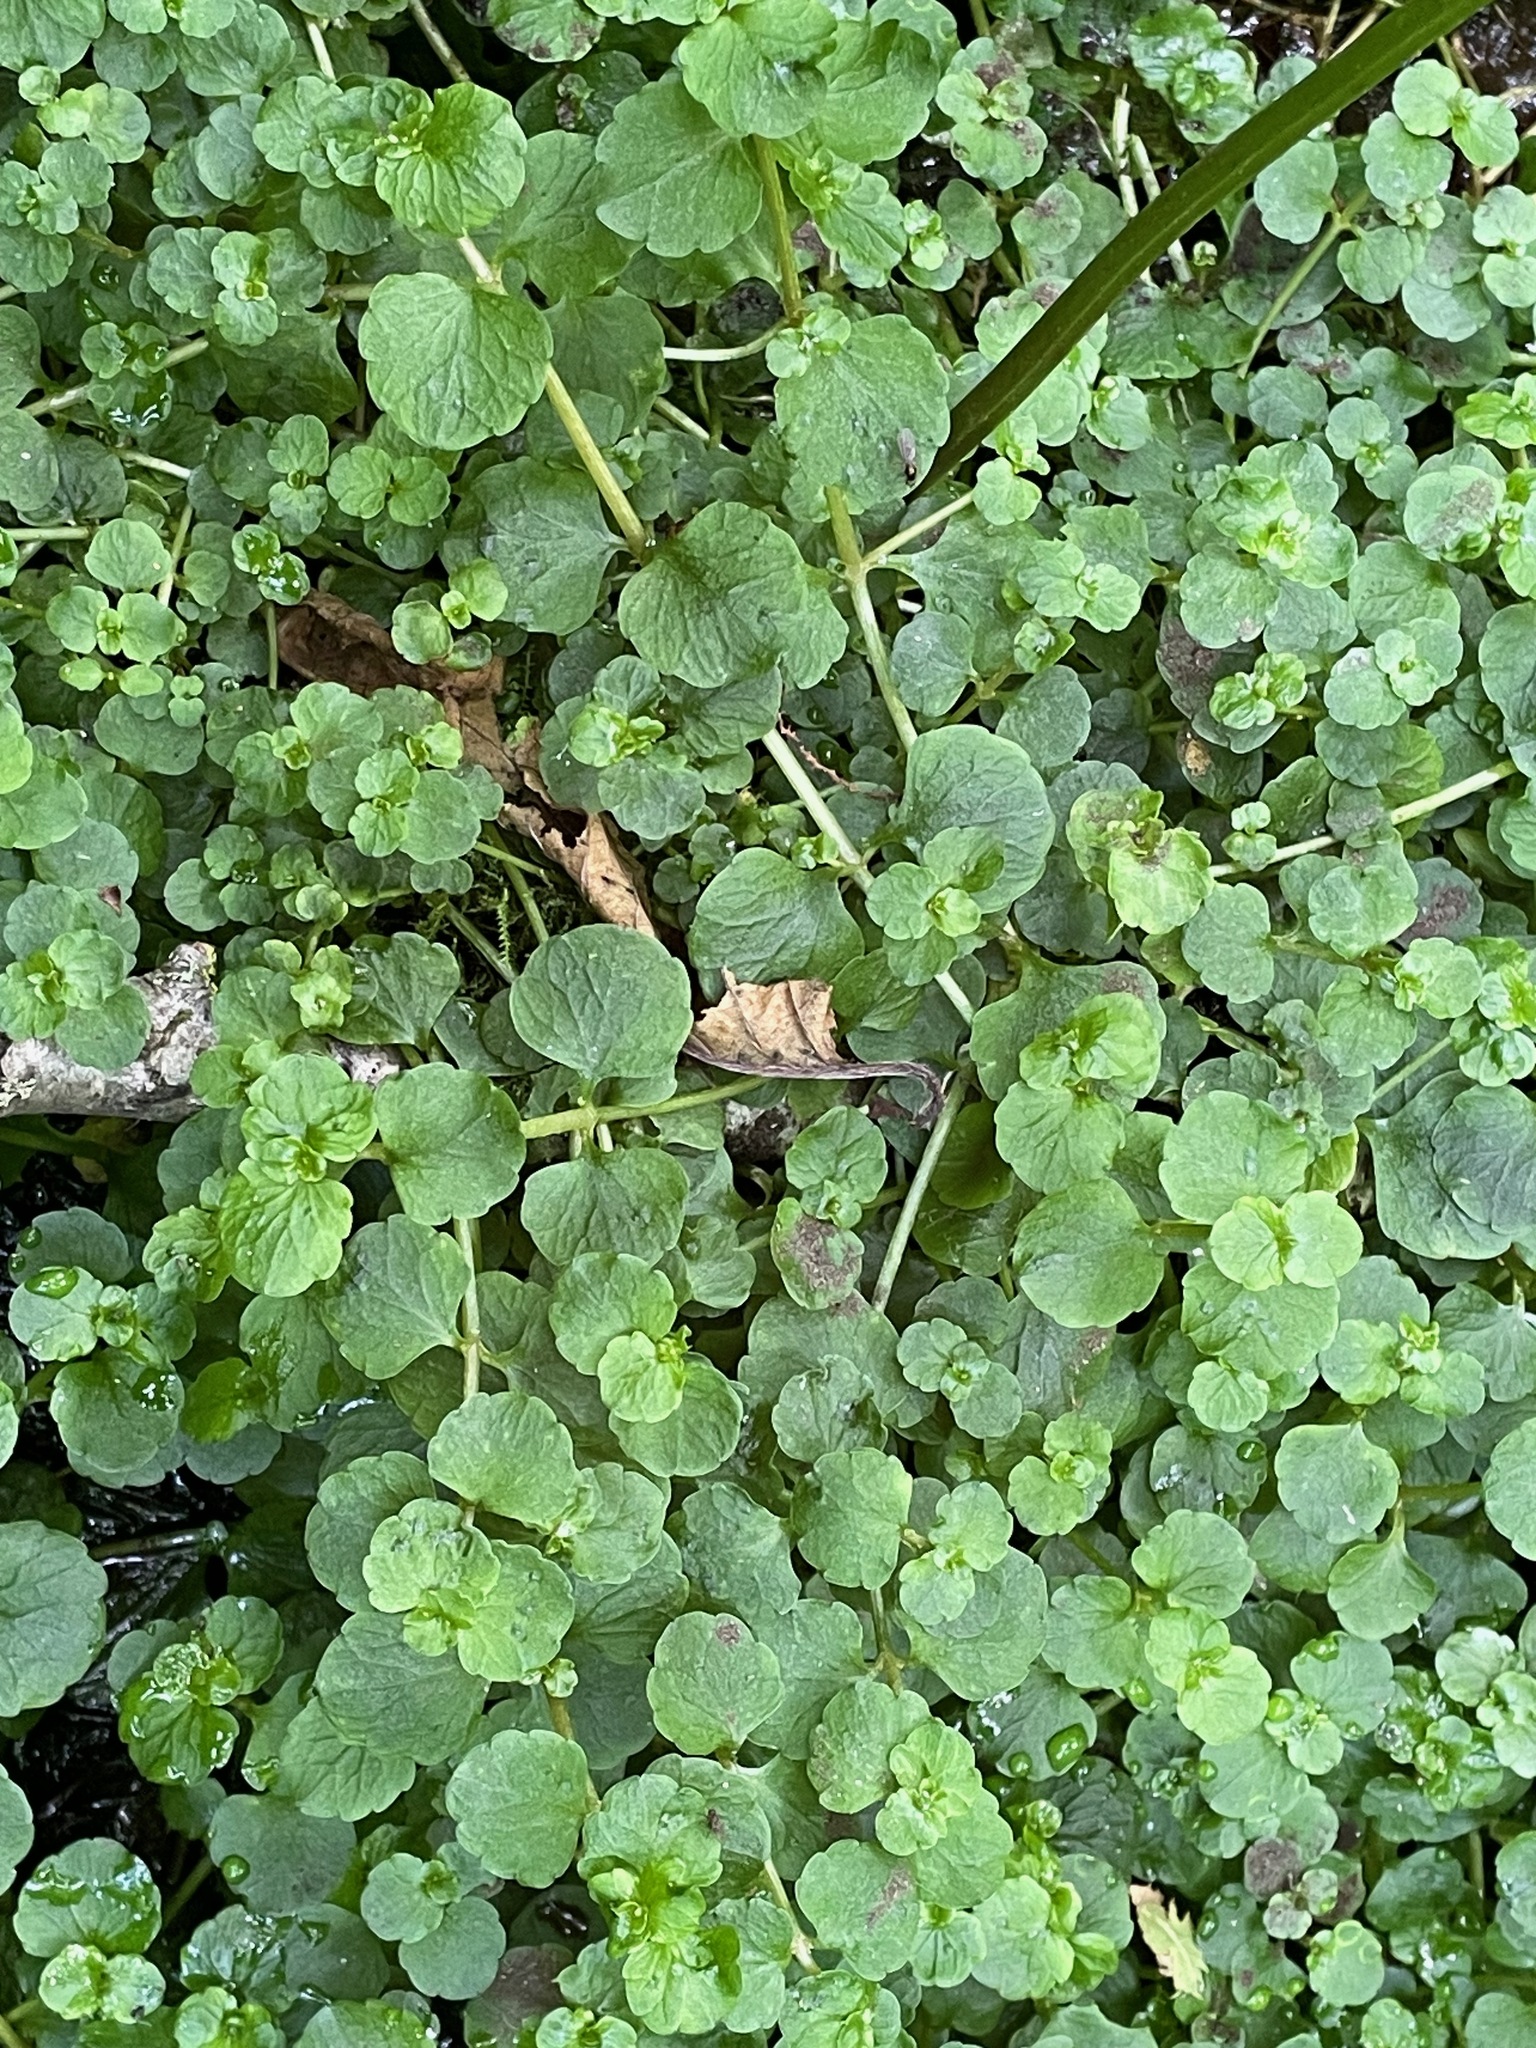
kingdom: Plantae
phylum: Tracheophyta
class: Magnoliopsida
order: Saxifragales
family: Saxifragaceae
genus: Chrysosplenium
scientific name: Chrysosplenium americanum
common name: American golden-saxifrage
